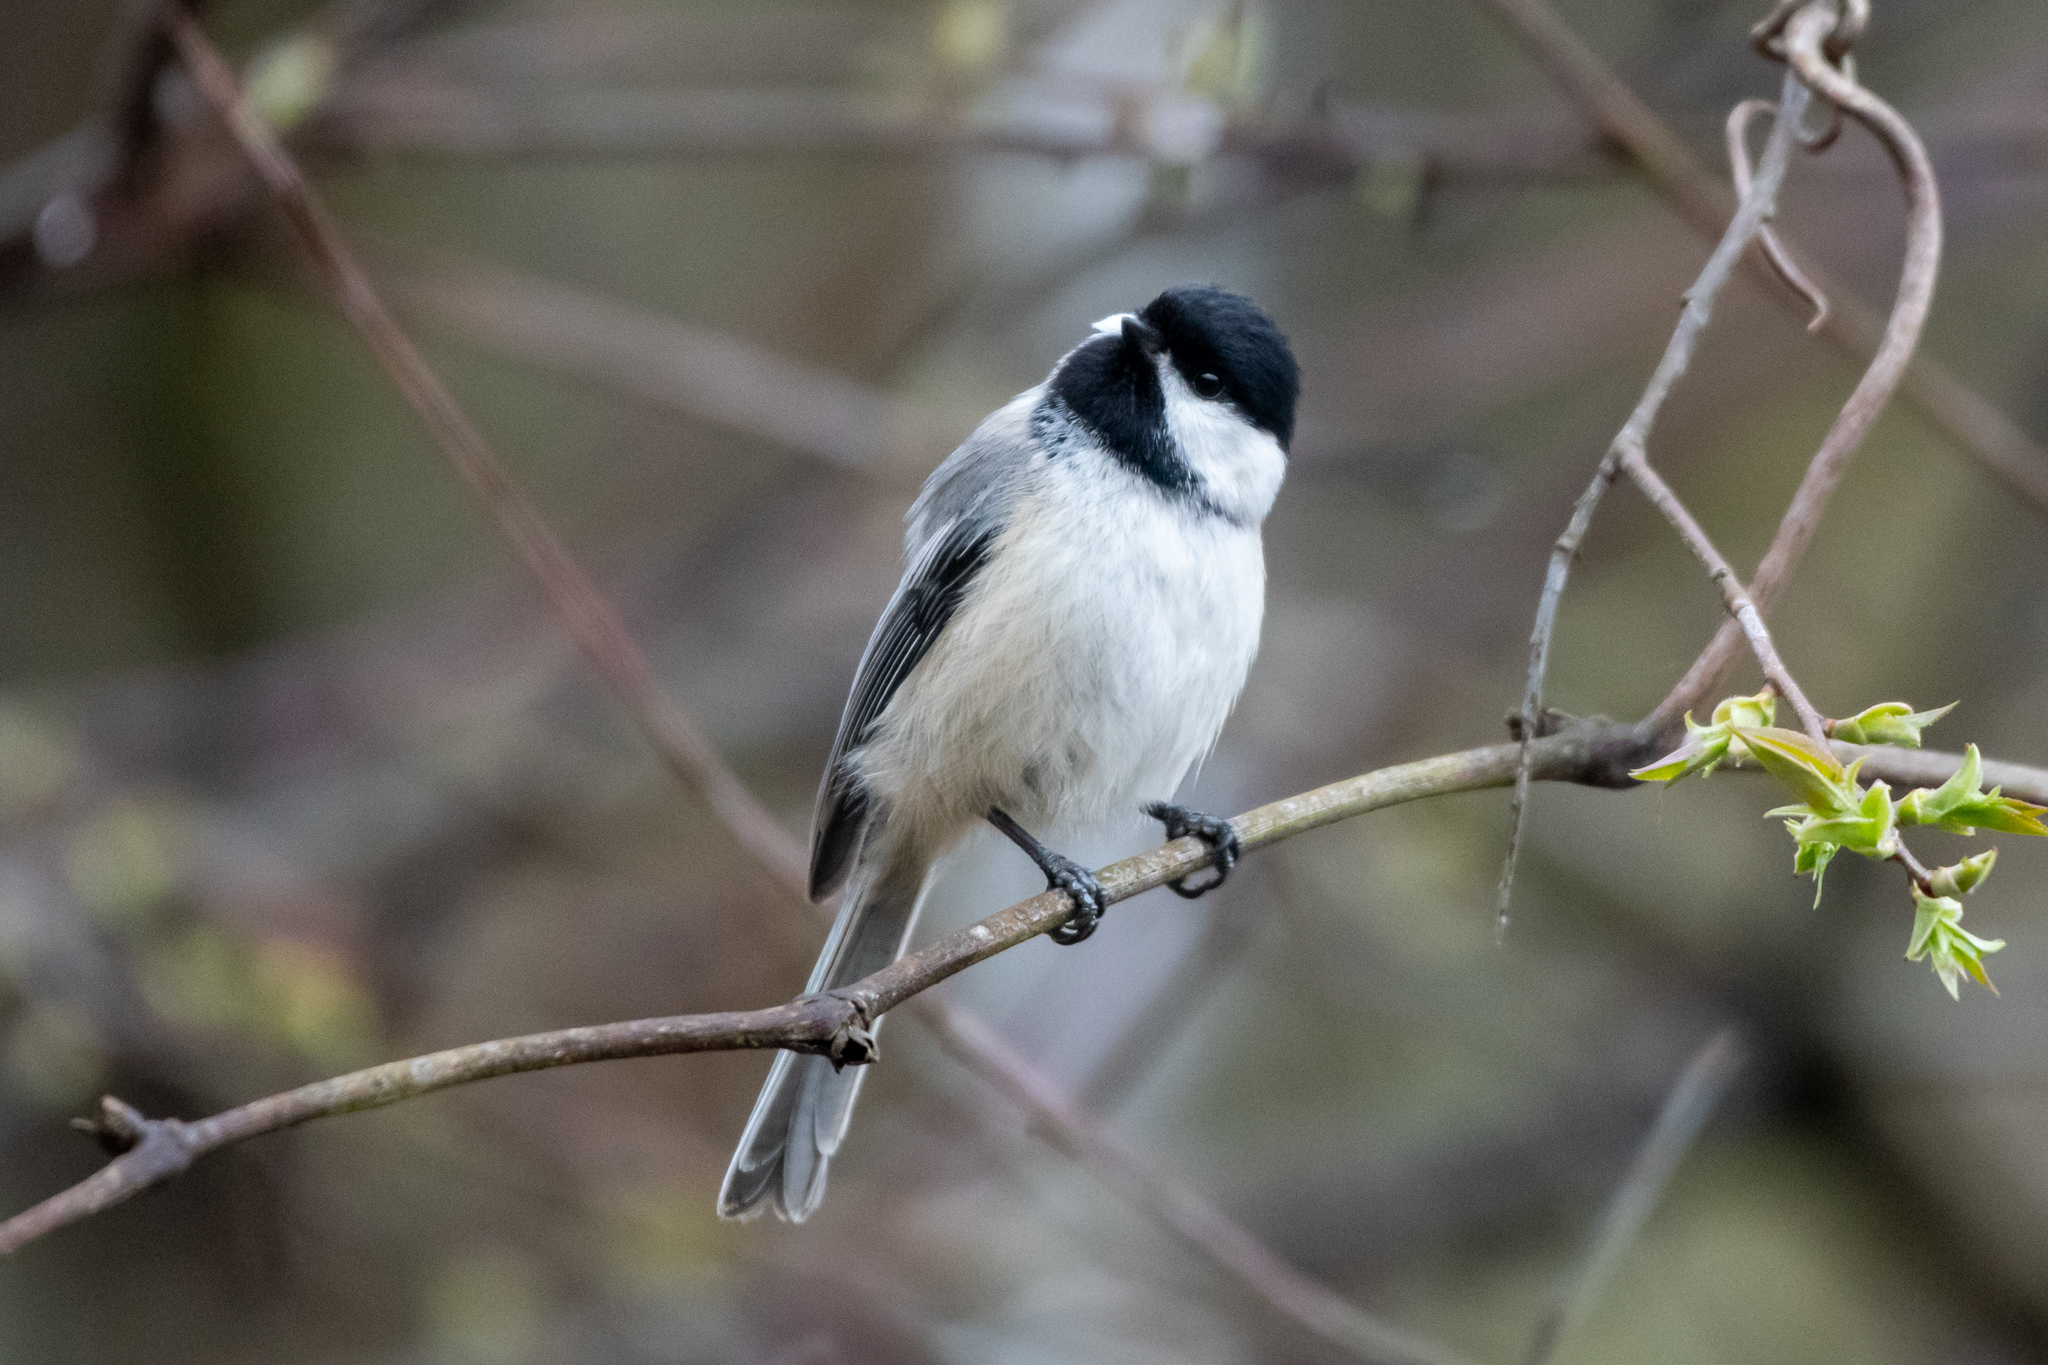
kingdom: Animalia
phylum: Chordata
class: Aves
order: Passeriformes
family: Paridae
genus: Poecile
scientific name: Poecile atricapillus
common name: Black-capped chickadee
